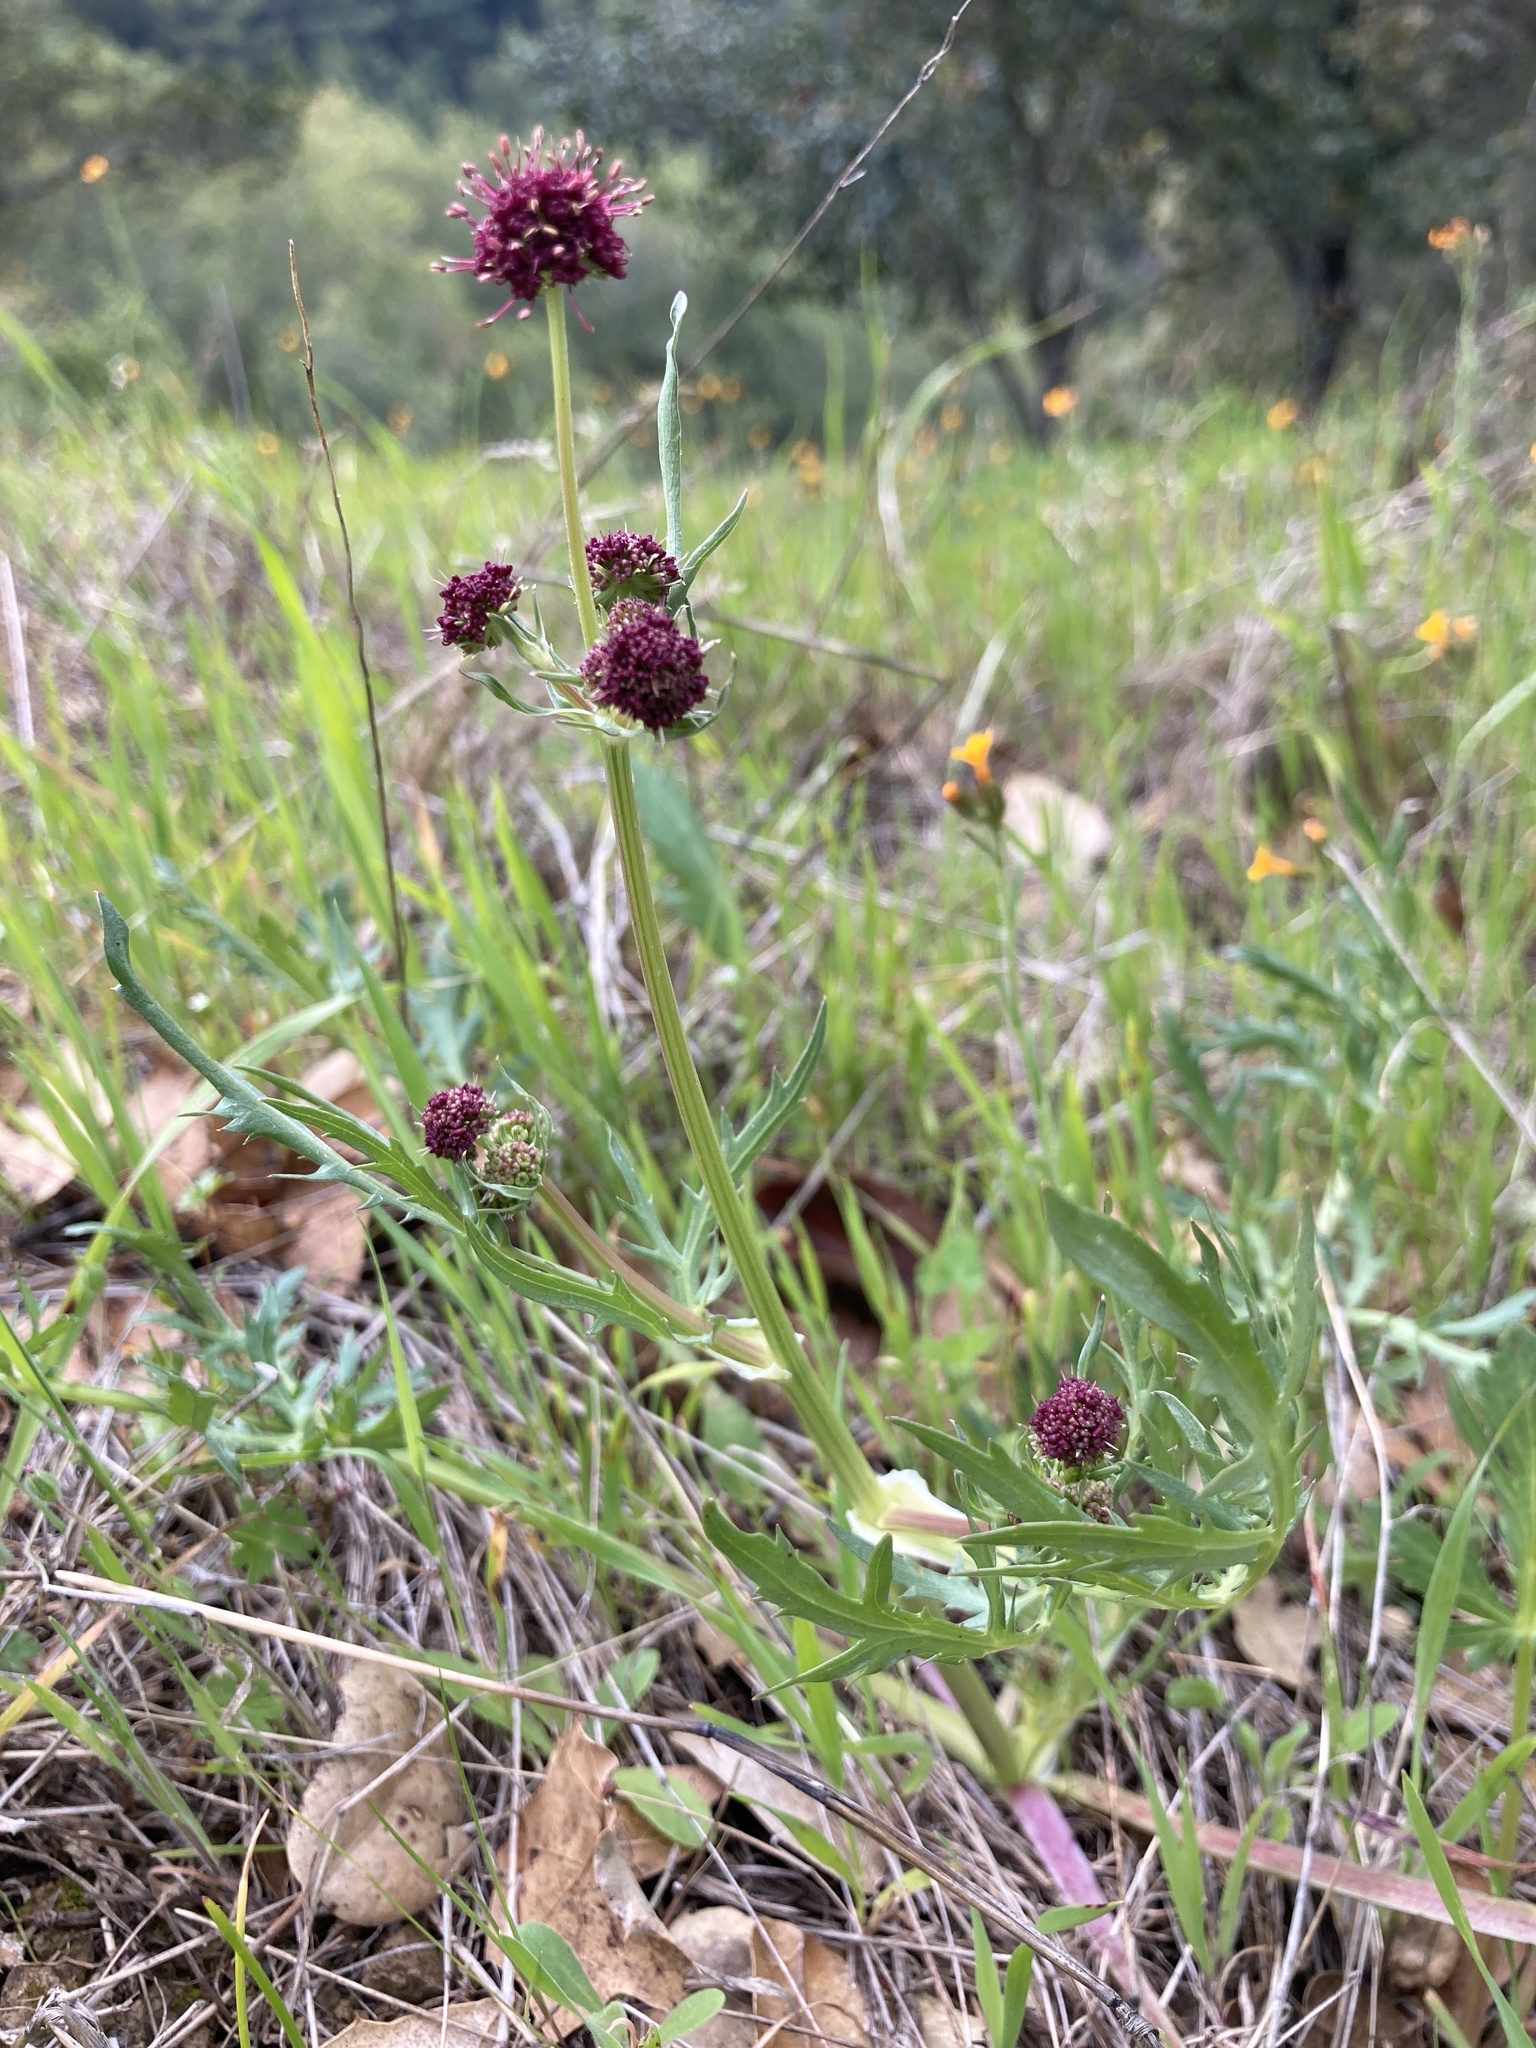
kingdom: Plantae
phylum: Tracheophyta
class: Magnoliopsida
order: Apiales
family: Apiaceae
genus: Sanicula
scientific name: Sanicula bipinnatifida
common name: Shoe-buttons
